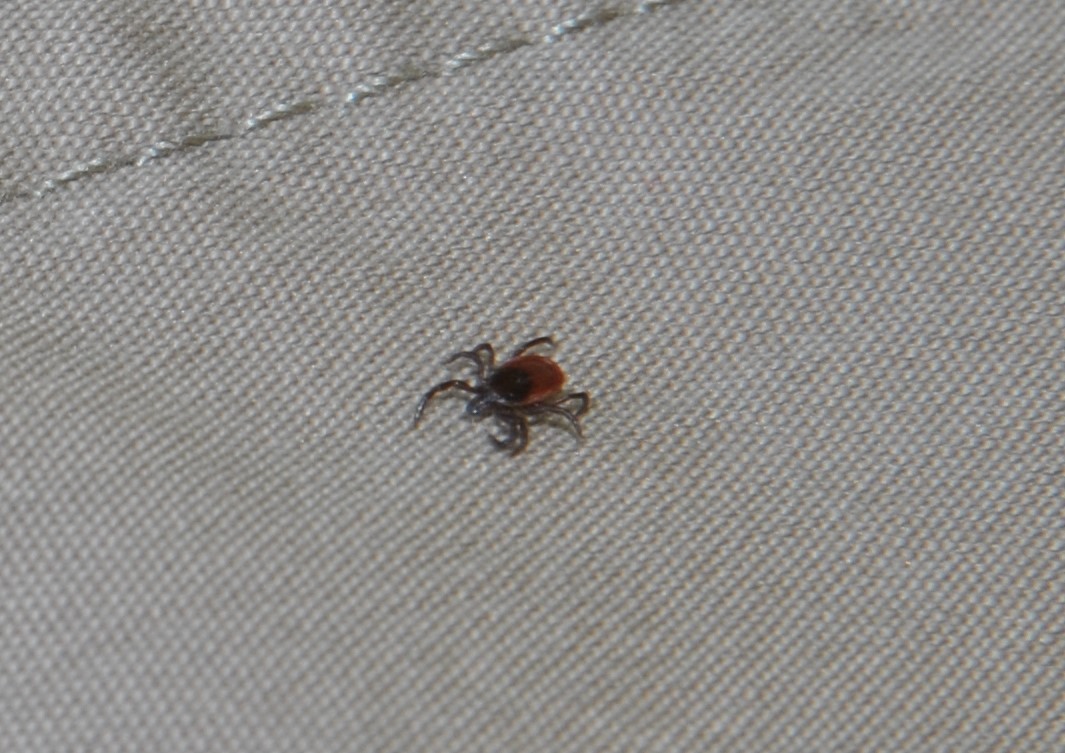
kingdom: Animalia
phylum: Arthropoda
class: Arachnida
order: Ixodida
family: Ixodidae
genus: Ixodes
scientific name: Ixodes pacificus
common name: California black-legged tick
